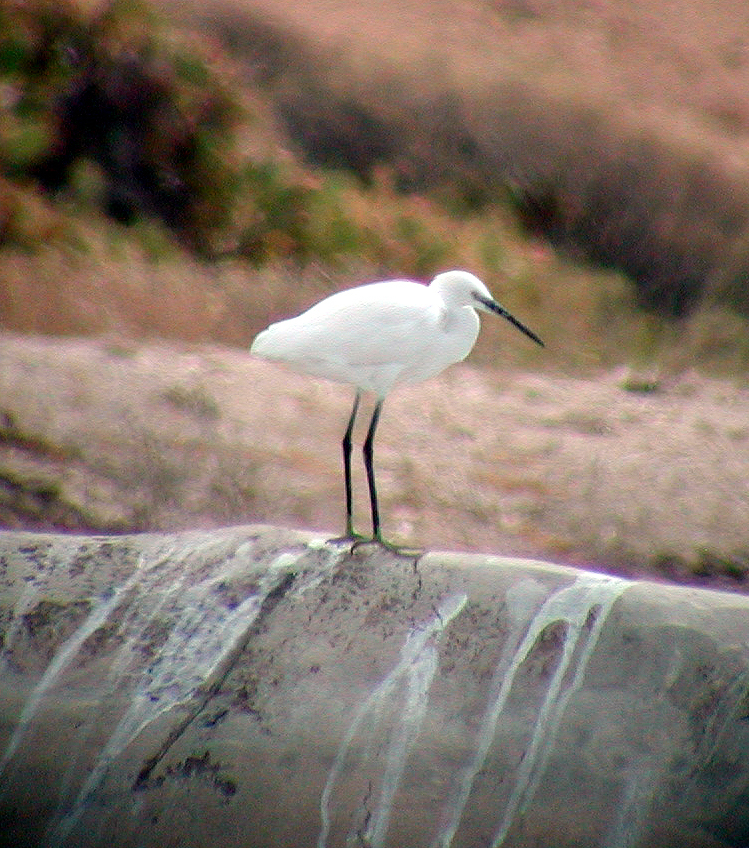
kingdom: Animalia
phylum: Chordata
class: Aves
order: Pelecaniformes
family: Ardeidae
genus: Egretta
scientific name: Egretta garzetta
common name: Little egret
